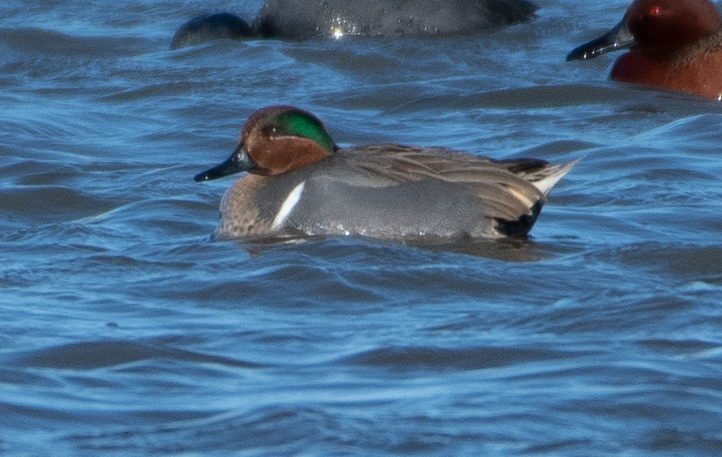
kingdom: Animalia
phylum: Chordata
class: Aves
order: Anseriformes
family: Anatidae
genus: Anas
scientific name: Anas crecca
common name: Eurasian teal
